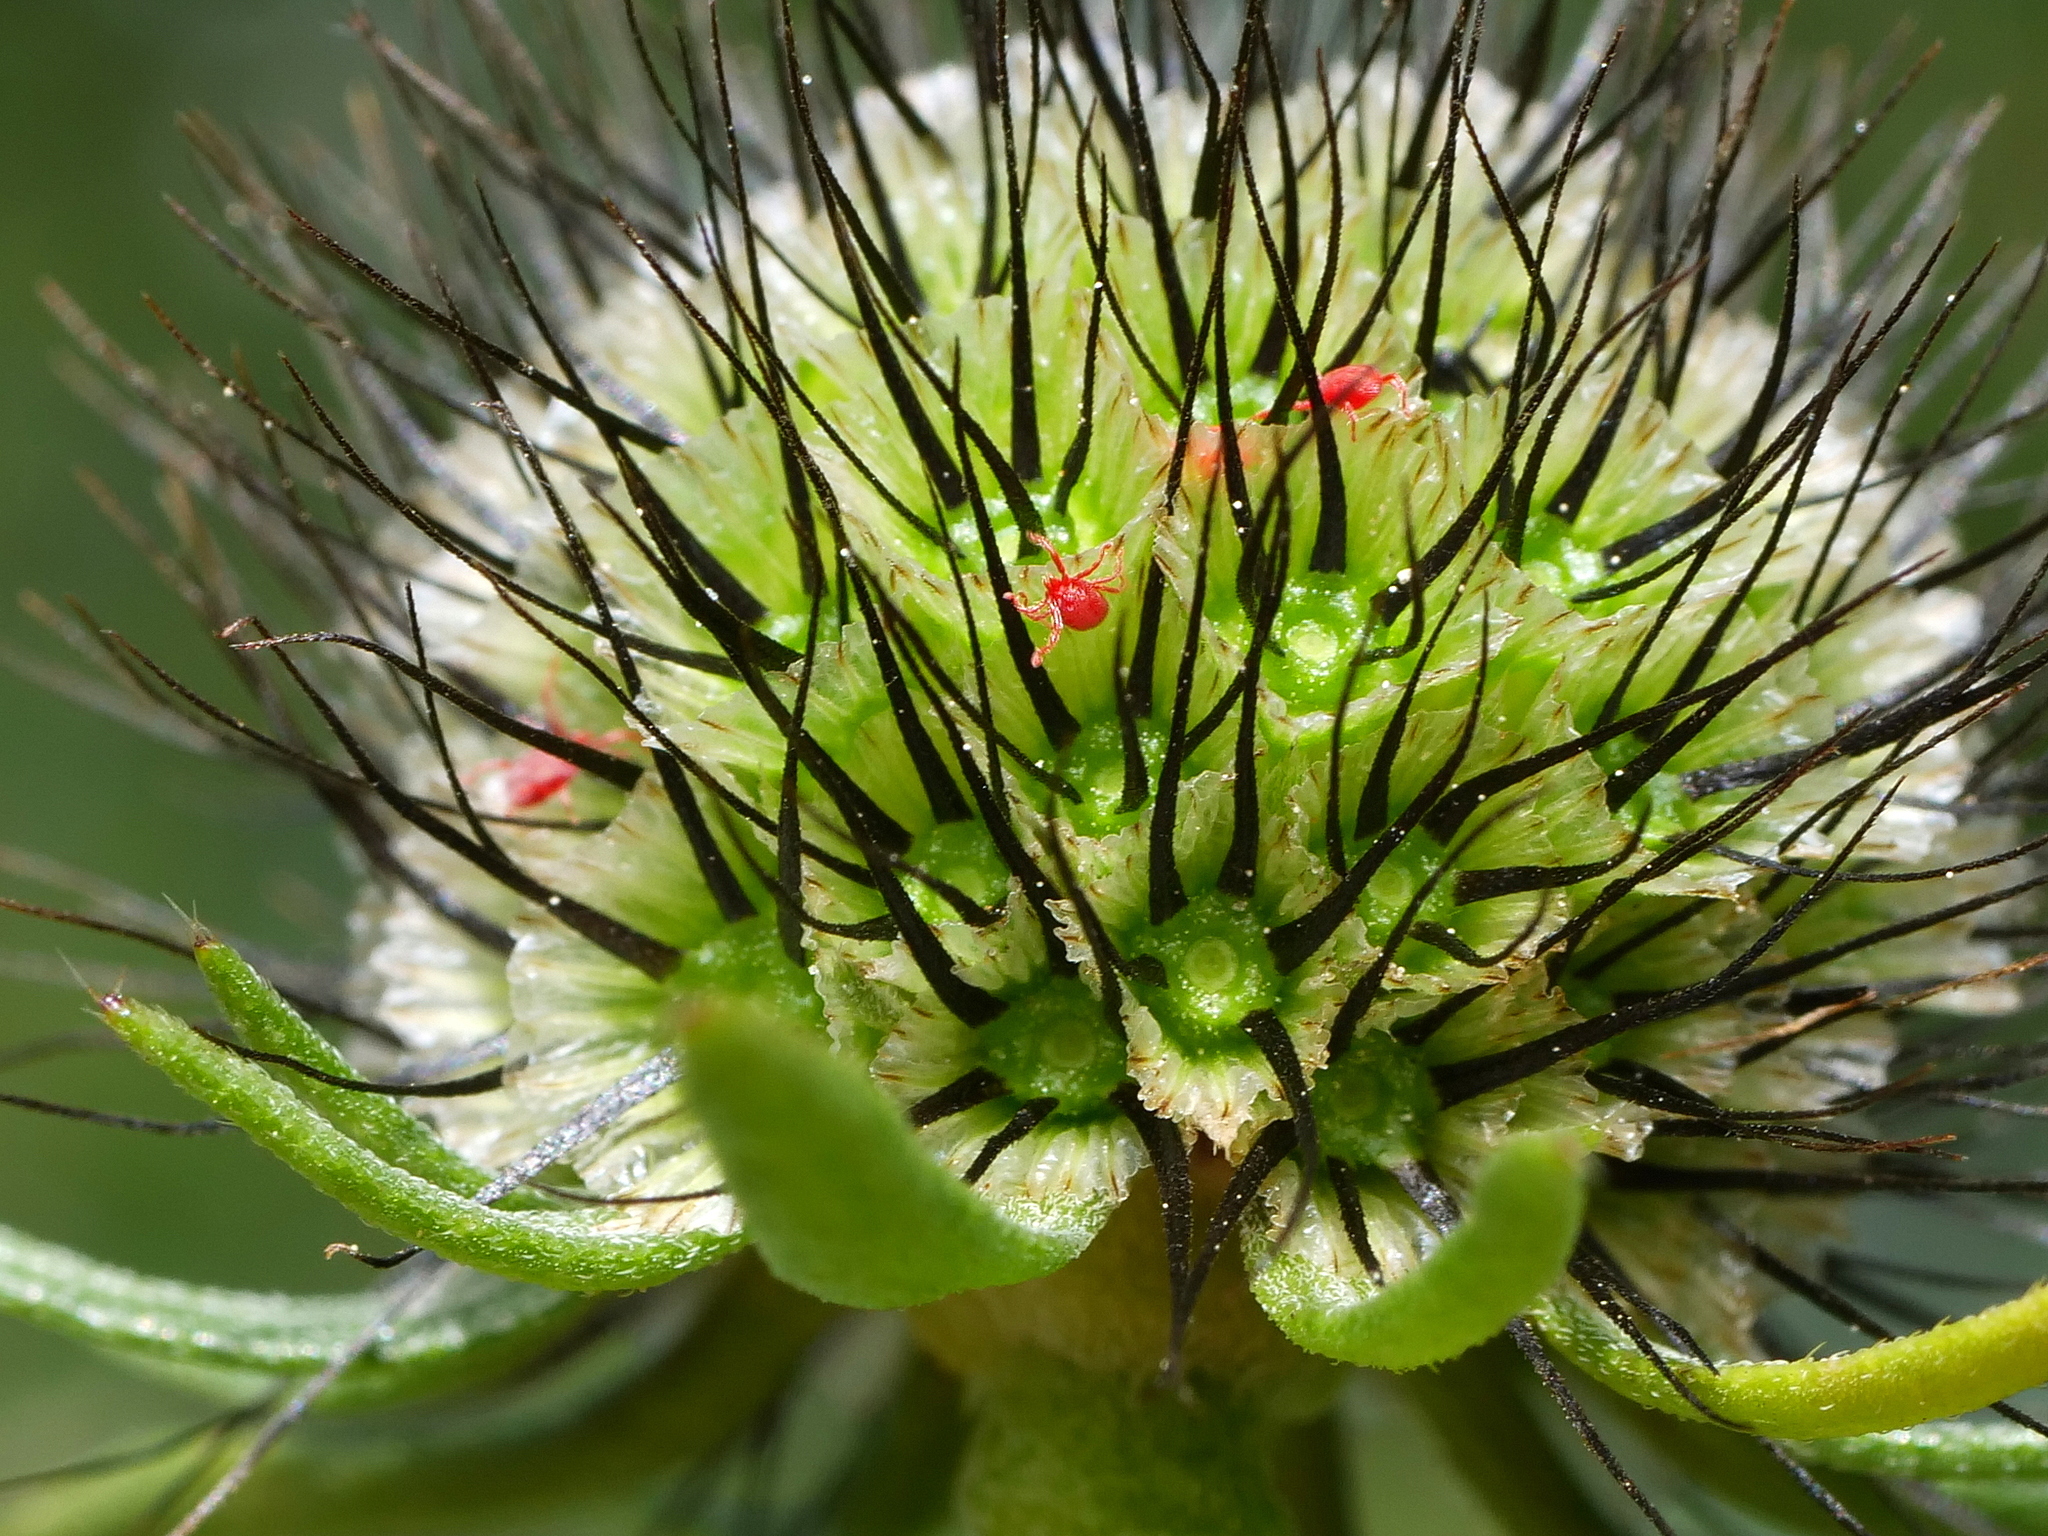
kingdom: Plantae
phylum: Tracheophyta
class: Magnoliopsida
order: Dipsacales
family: Caprifoliaceae
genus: Scabiosa
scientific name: Scabiosa lucida
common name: Shining scabious
